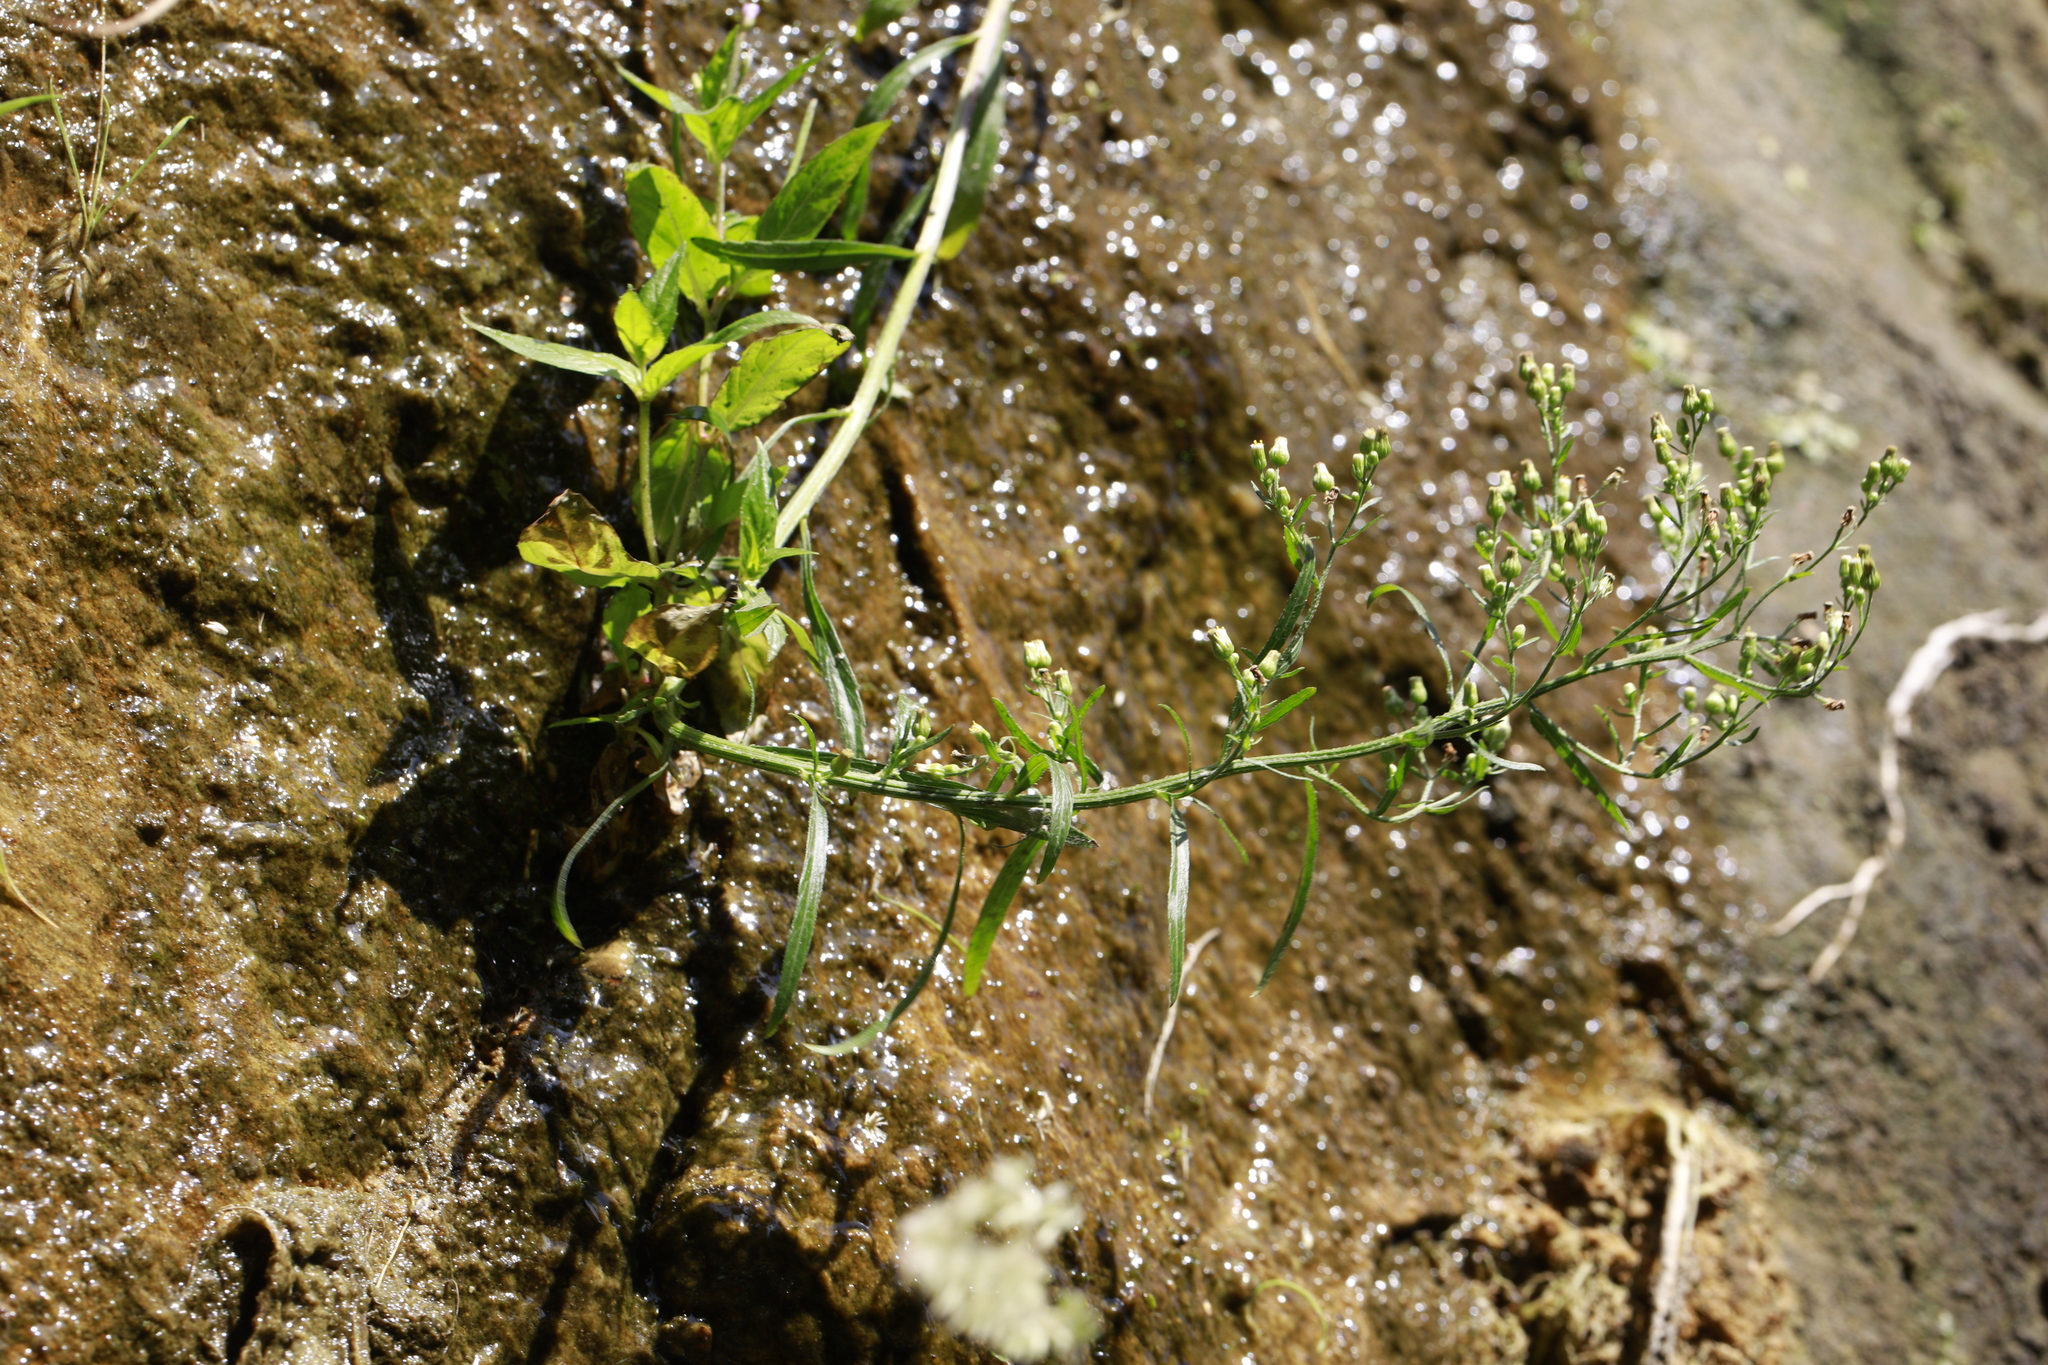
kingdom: Plantae
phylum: Tracheophyta
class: Magnoliopsida
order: Asterales
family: Asteraceae
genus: Erigeron
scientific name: Erigeron canadensis
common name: Canadian fleabane
